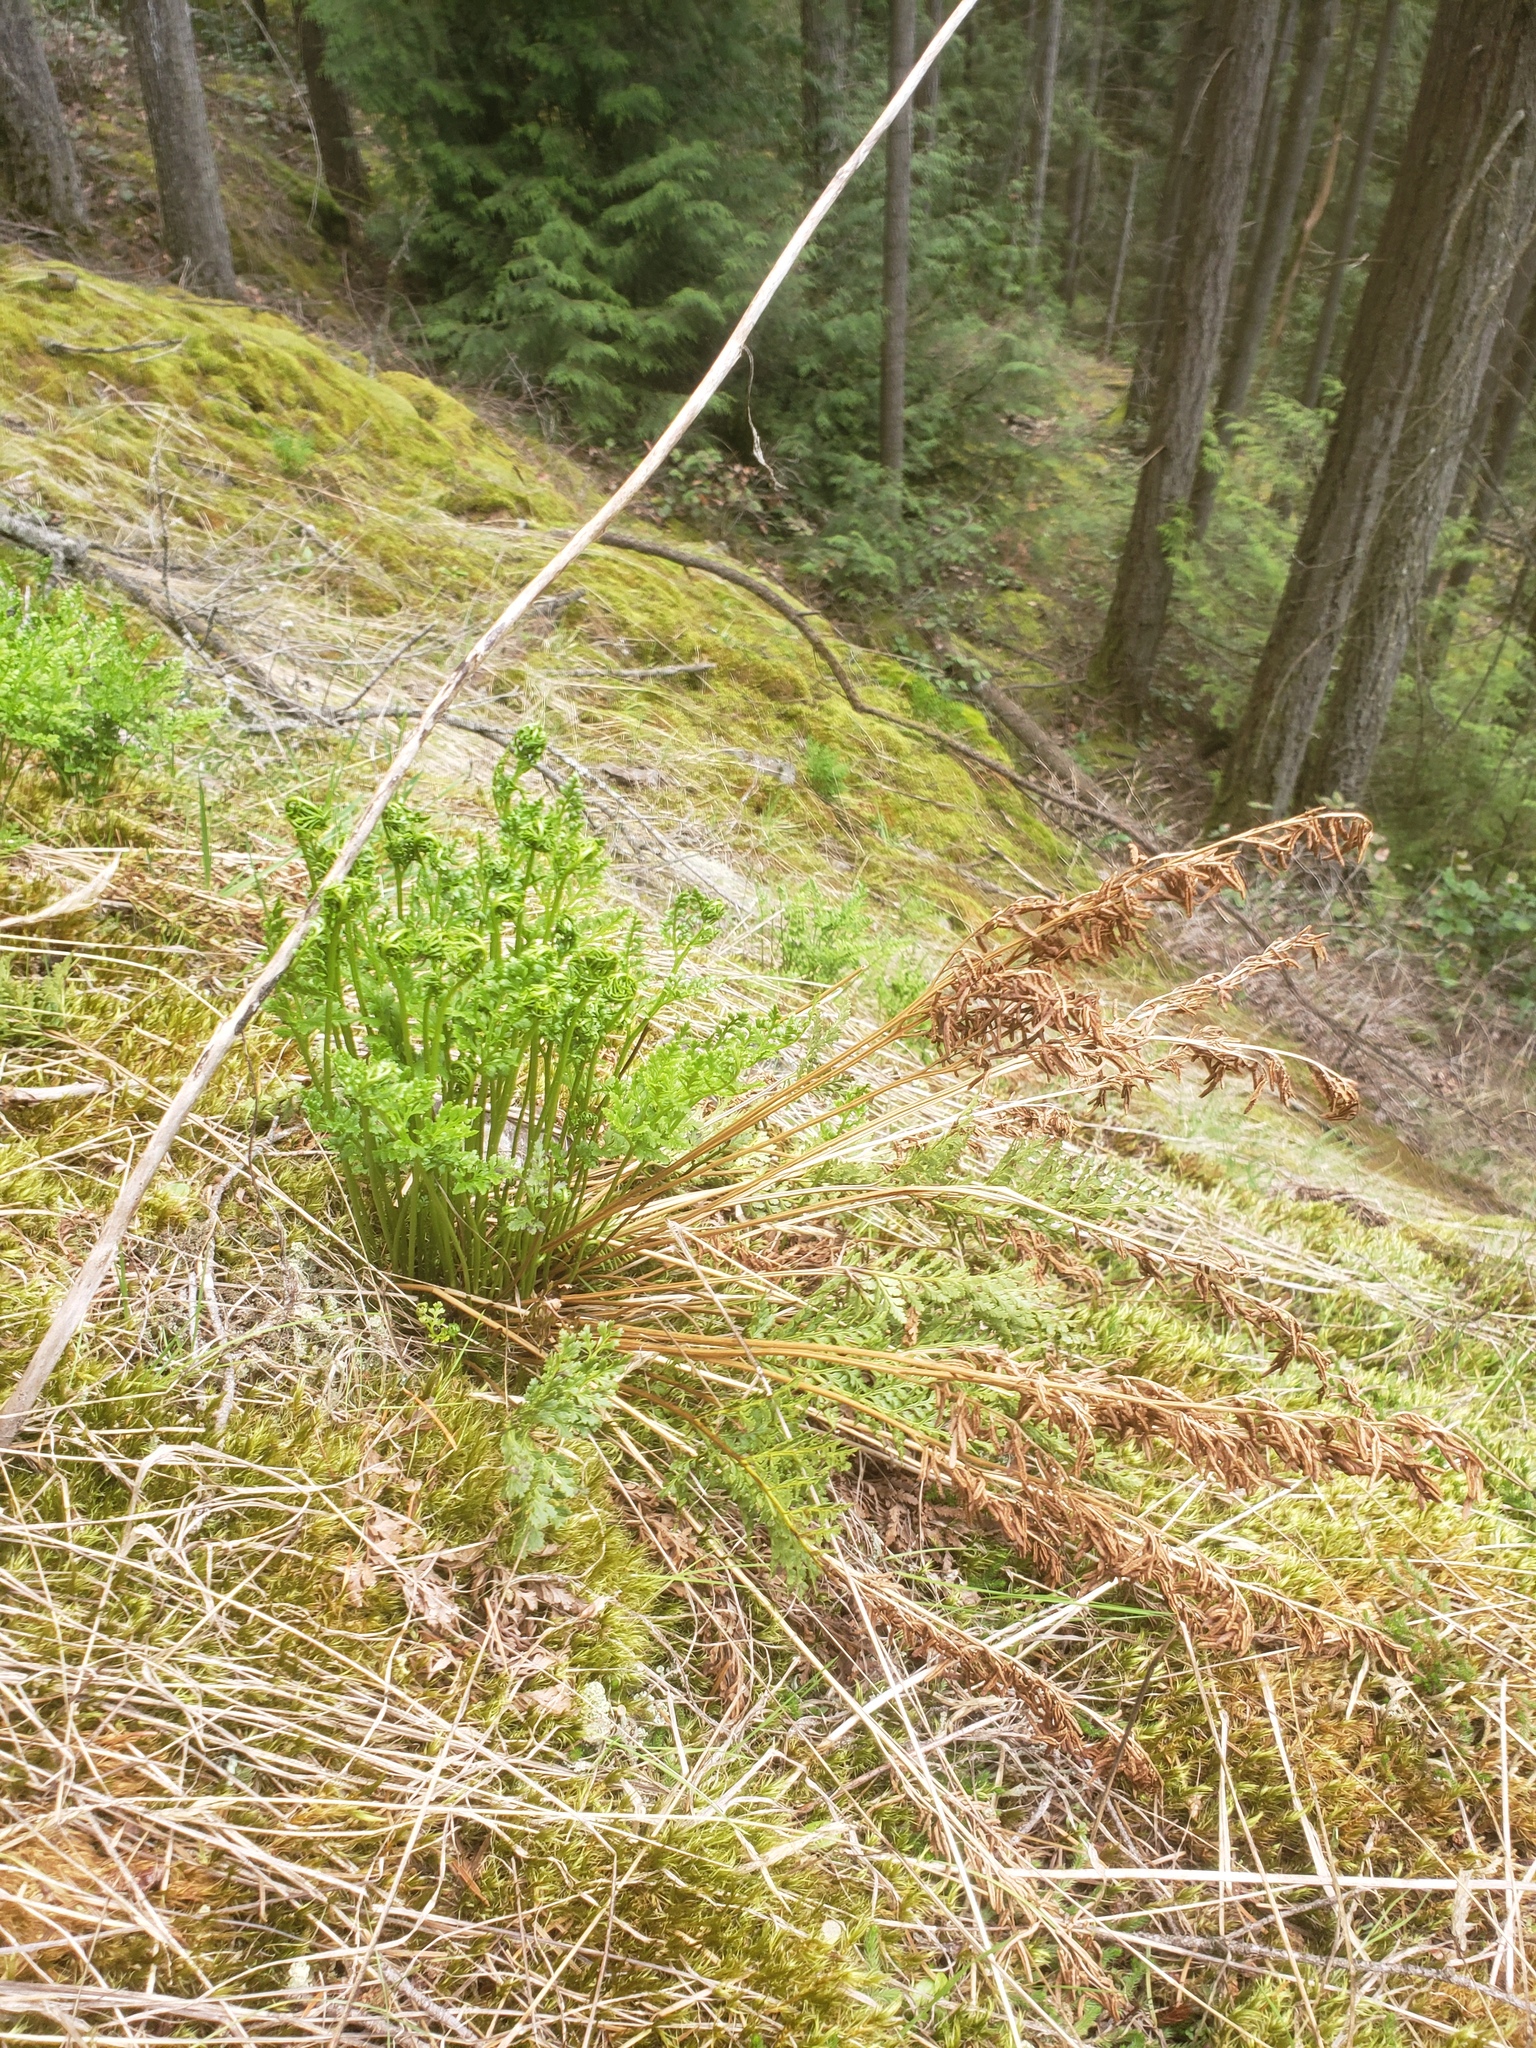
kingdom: Plantae
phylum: Tracheophyta
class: Polypodiopsida
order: Polypodiales
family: Pteridaceae
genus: Cryptogramma
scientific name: Cryptogramma acrostichoides
